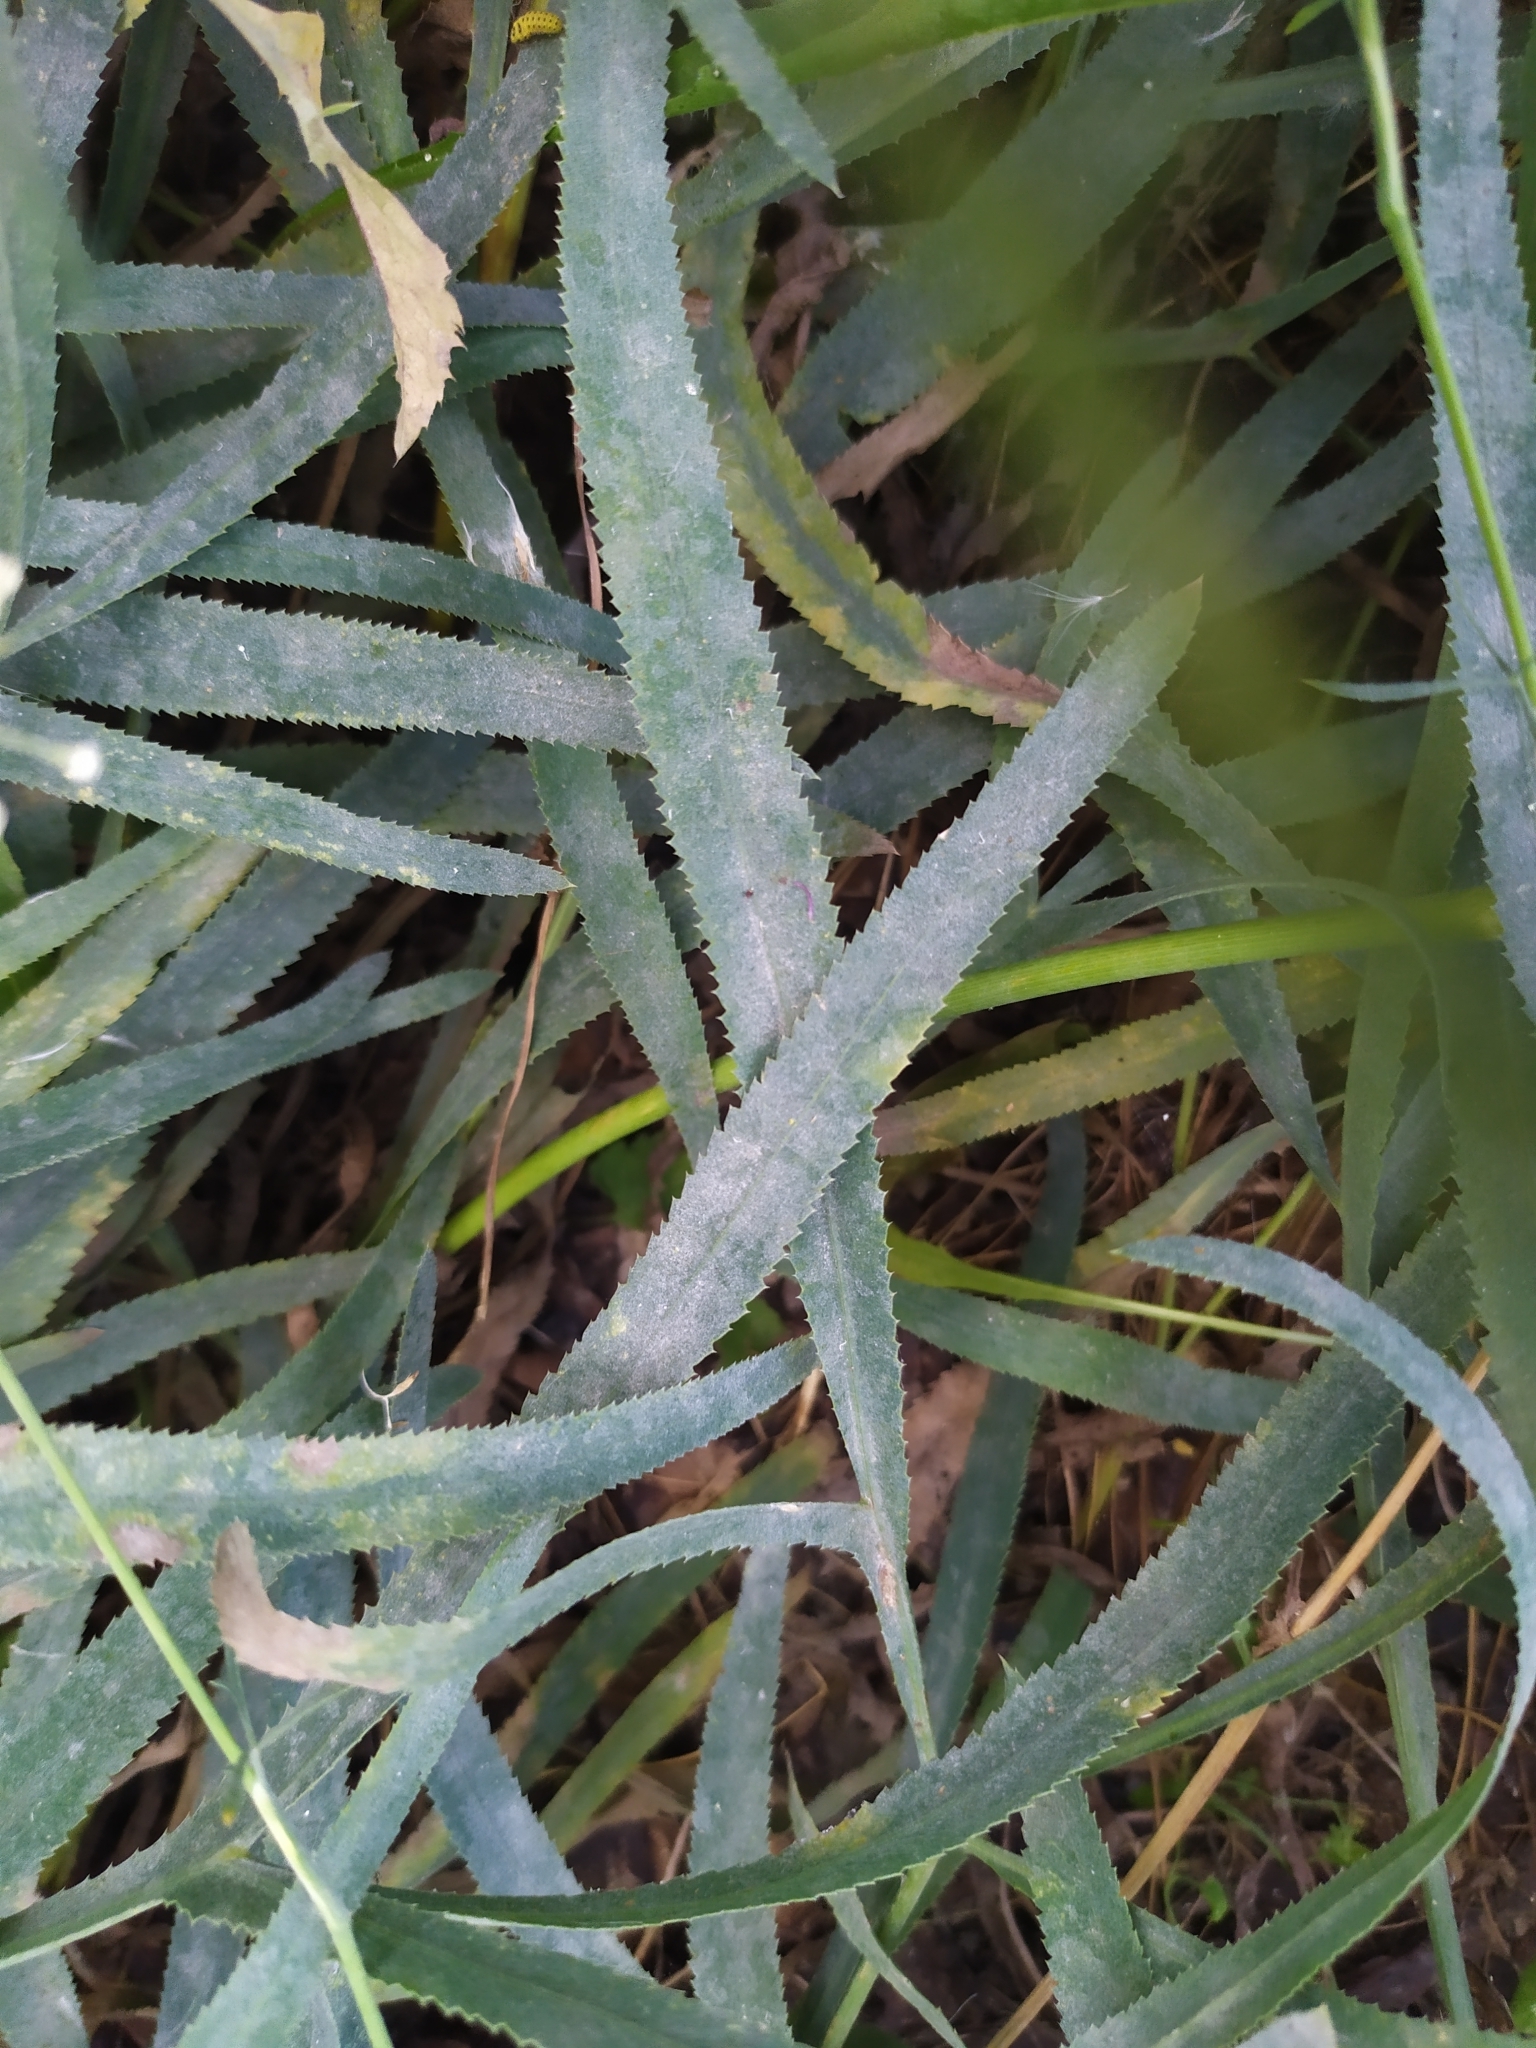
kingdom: Fungi
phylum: Ascomycota
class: Leotiomycetes
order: Helotiales
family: Erysiphaceae
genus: Erysiphe
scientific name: Erysiphe heraclei
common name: Umbellifer mildew
